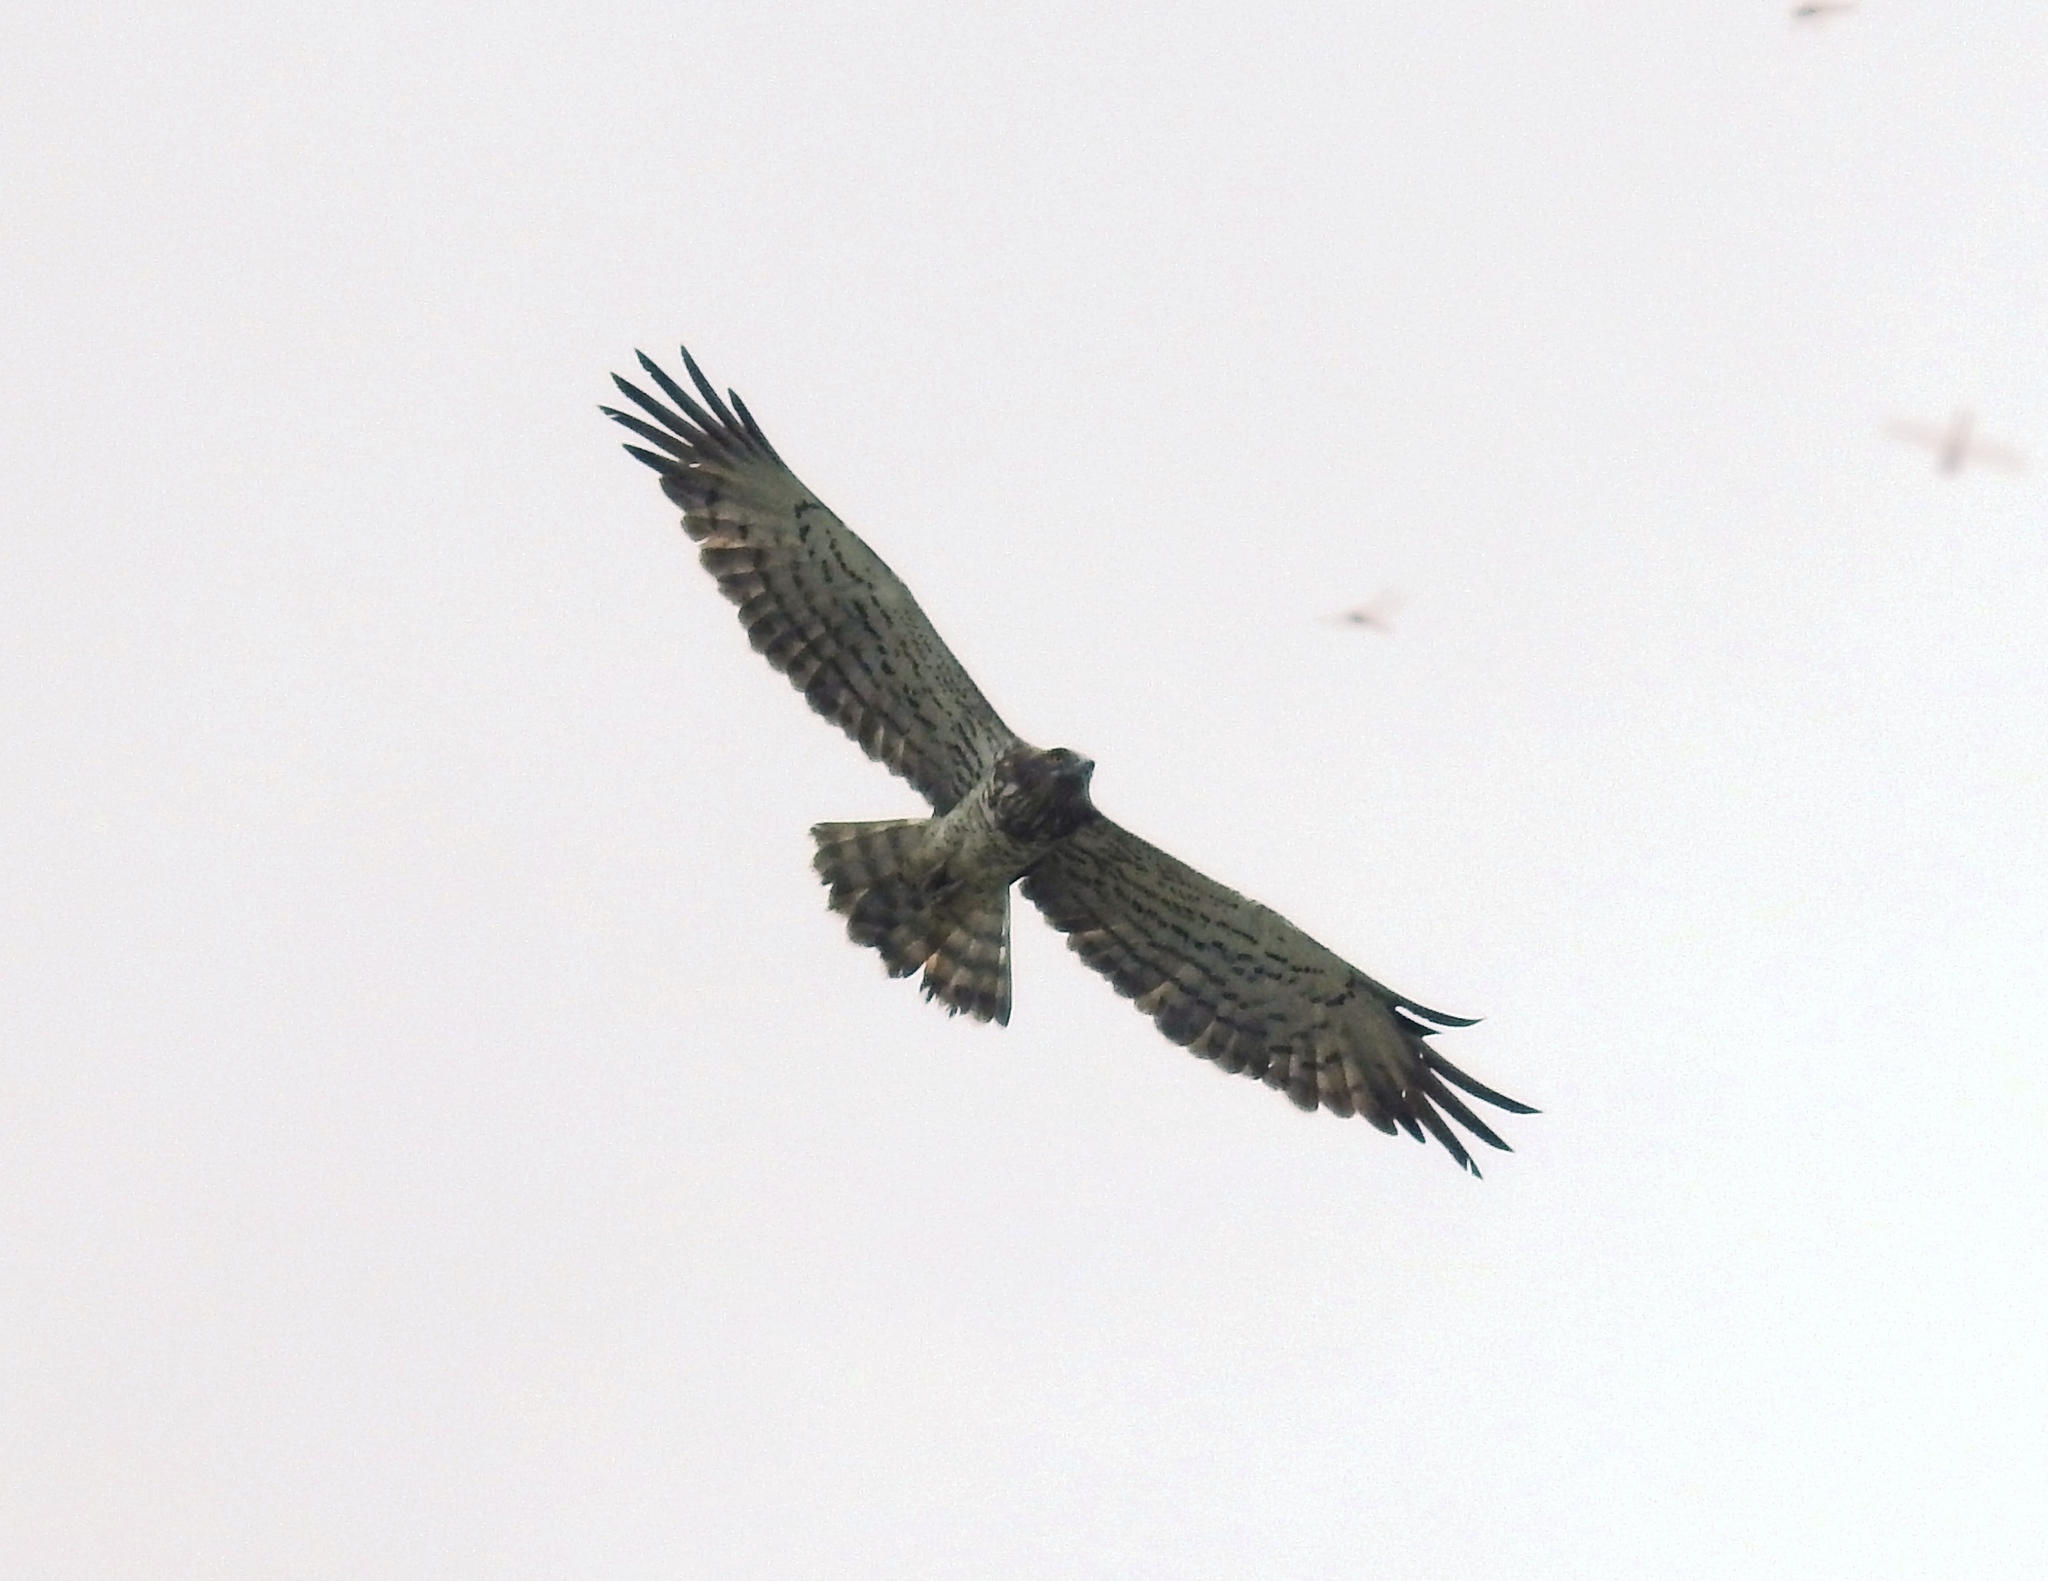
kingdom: Animalia
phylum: Chordata
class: Aves
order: Accipitriformes
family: Accipitridae
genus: Circaetus
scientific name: Circaetus gallicus
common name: Short-toed snake eagle
